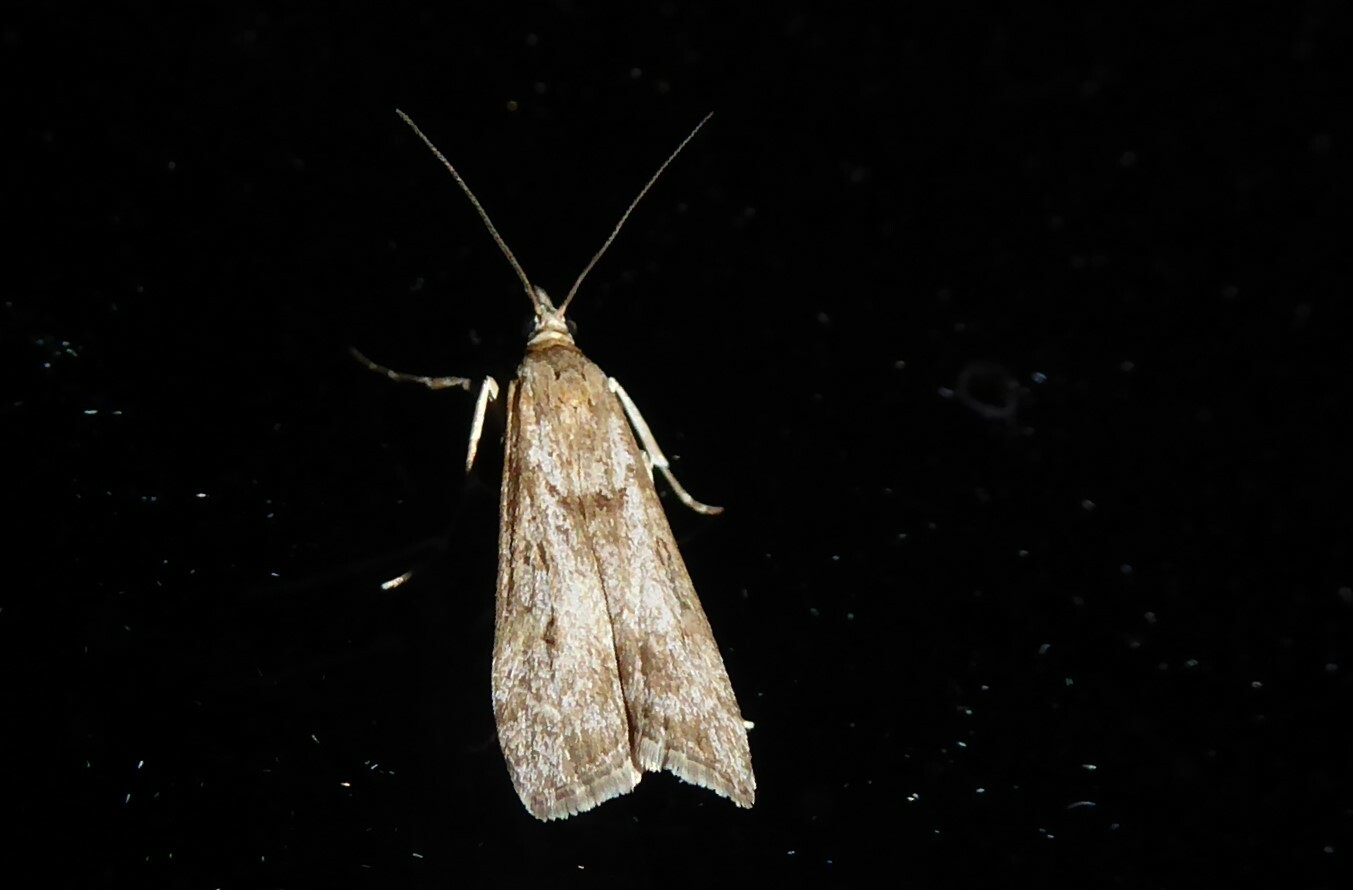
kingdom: Animalia
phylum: Arthropoda
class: Insecta
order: Lepidoptera
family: Crambidae
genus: Eudonia
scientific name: Eudonia leptalea
